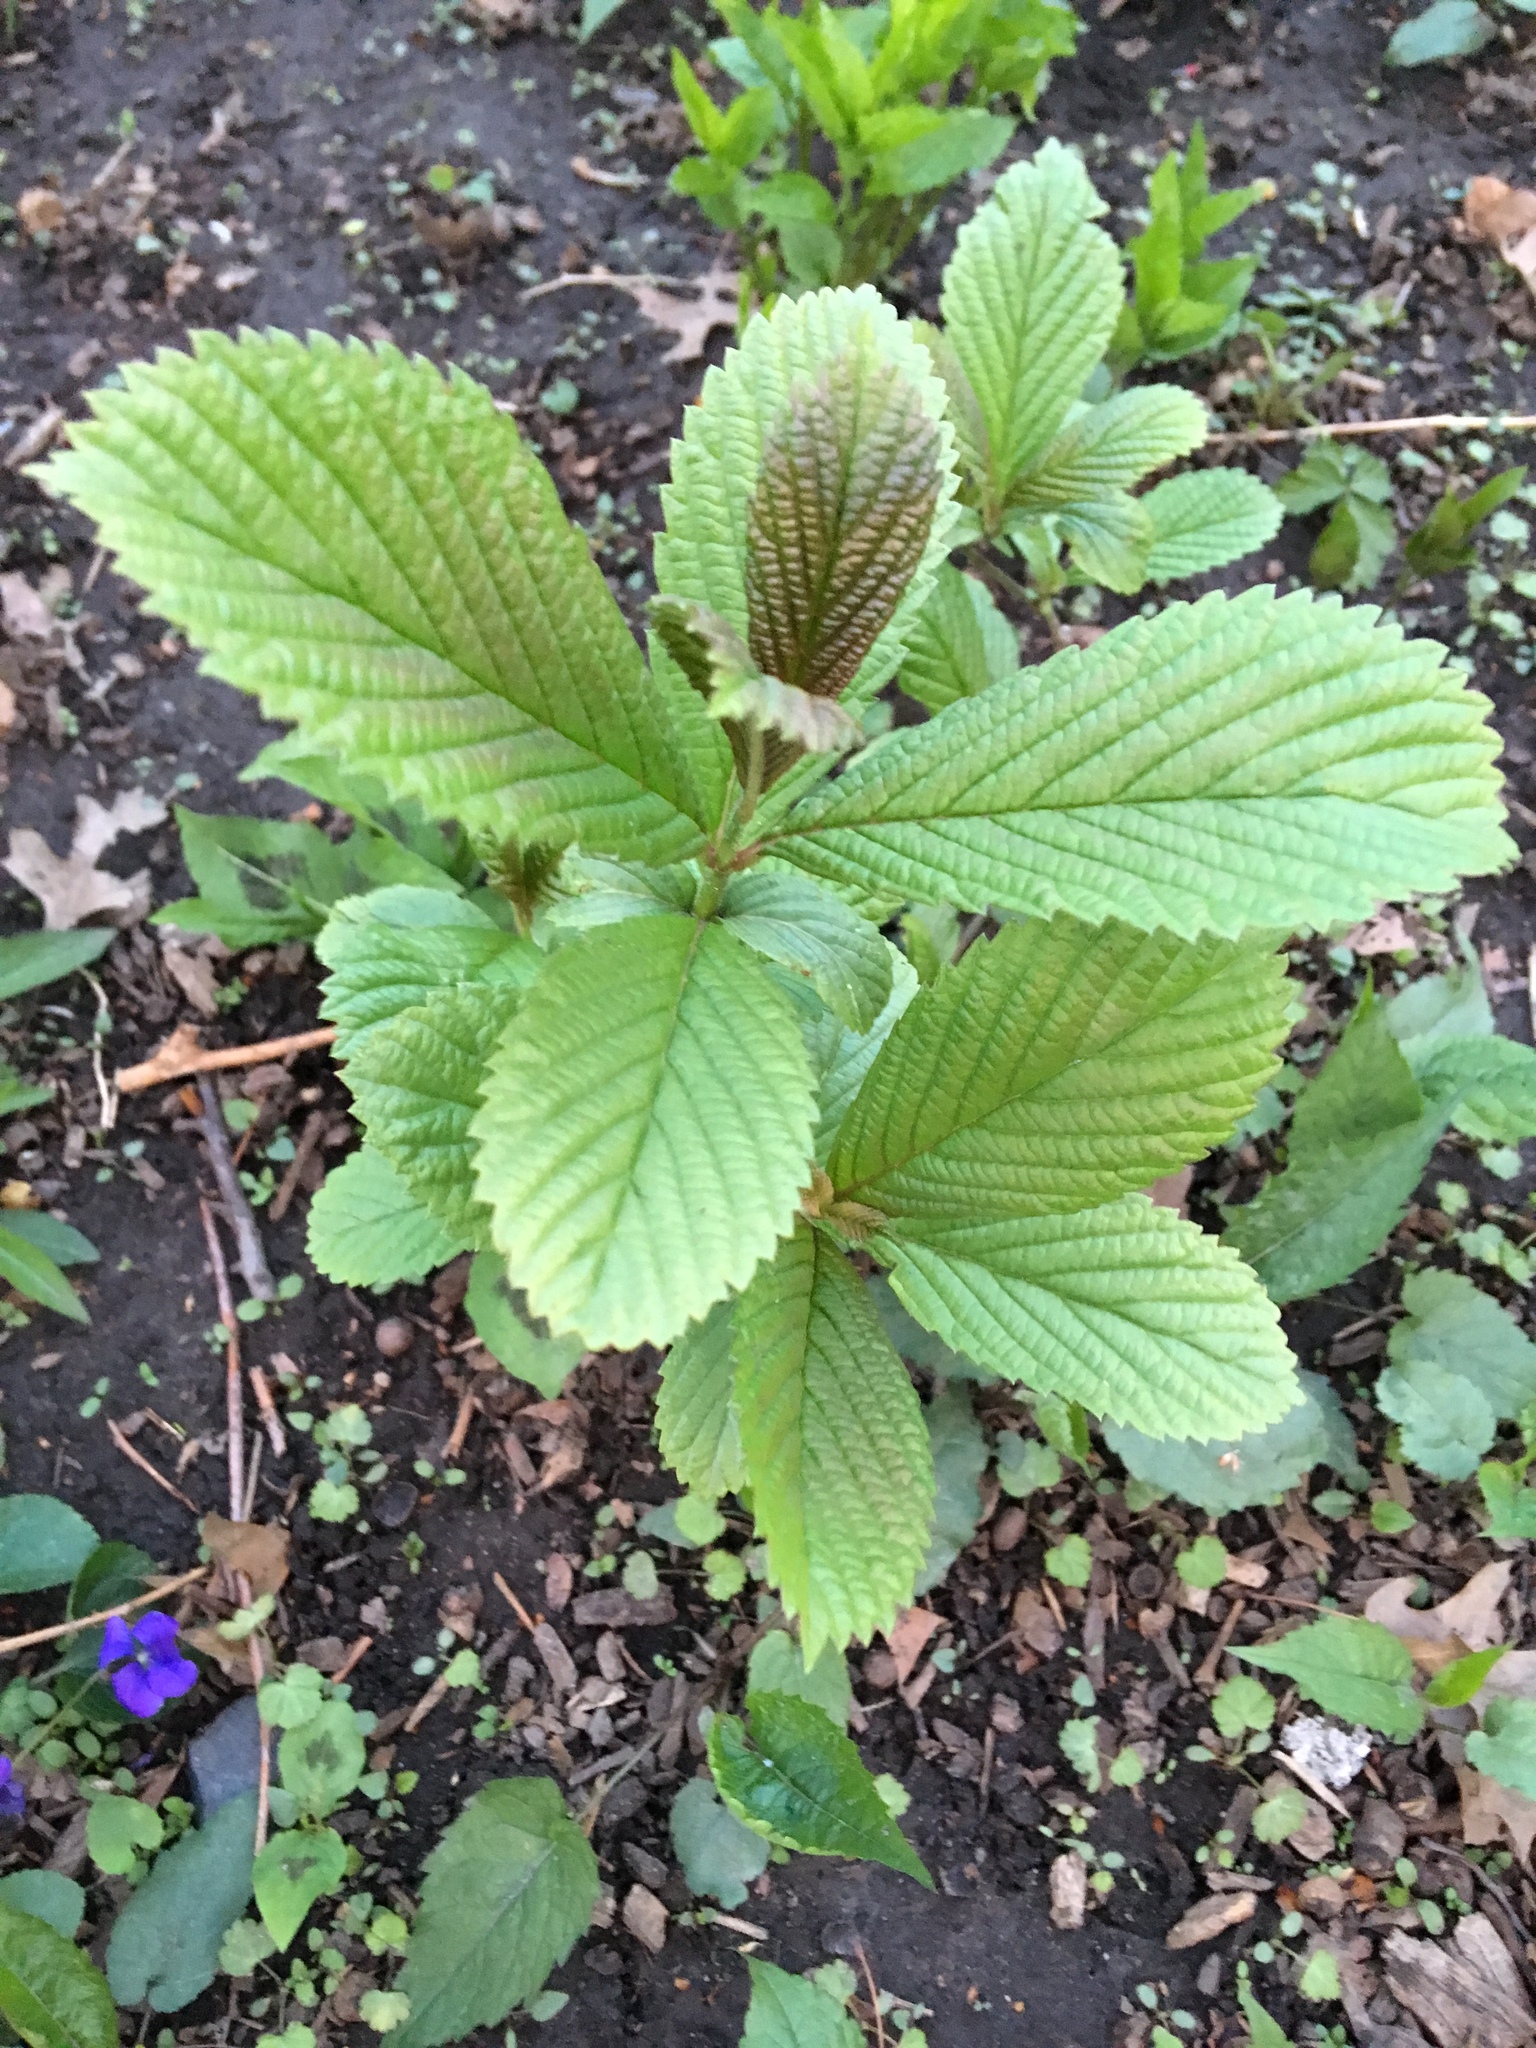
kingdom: Plantae
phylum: Tracheophyta
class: Magnoliopsida
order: Dipsacales
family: Viburnaceae
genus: Viburnum
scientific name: Viburnum sieboldii
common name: Siebold's arrowwood
